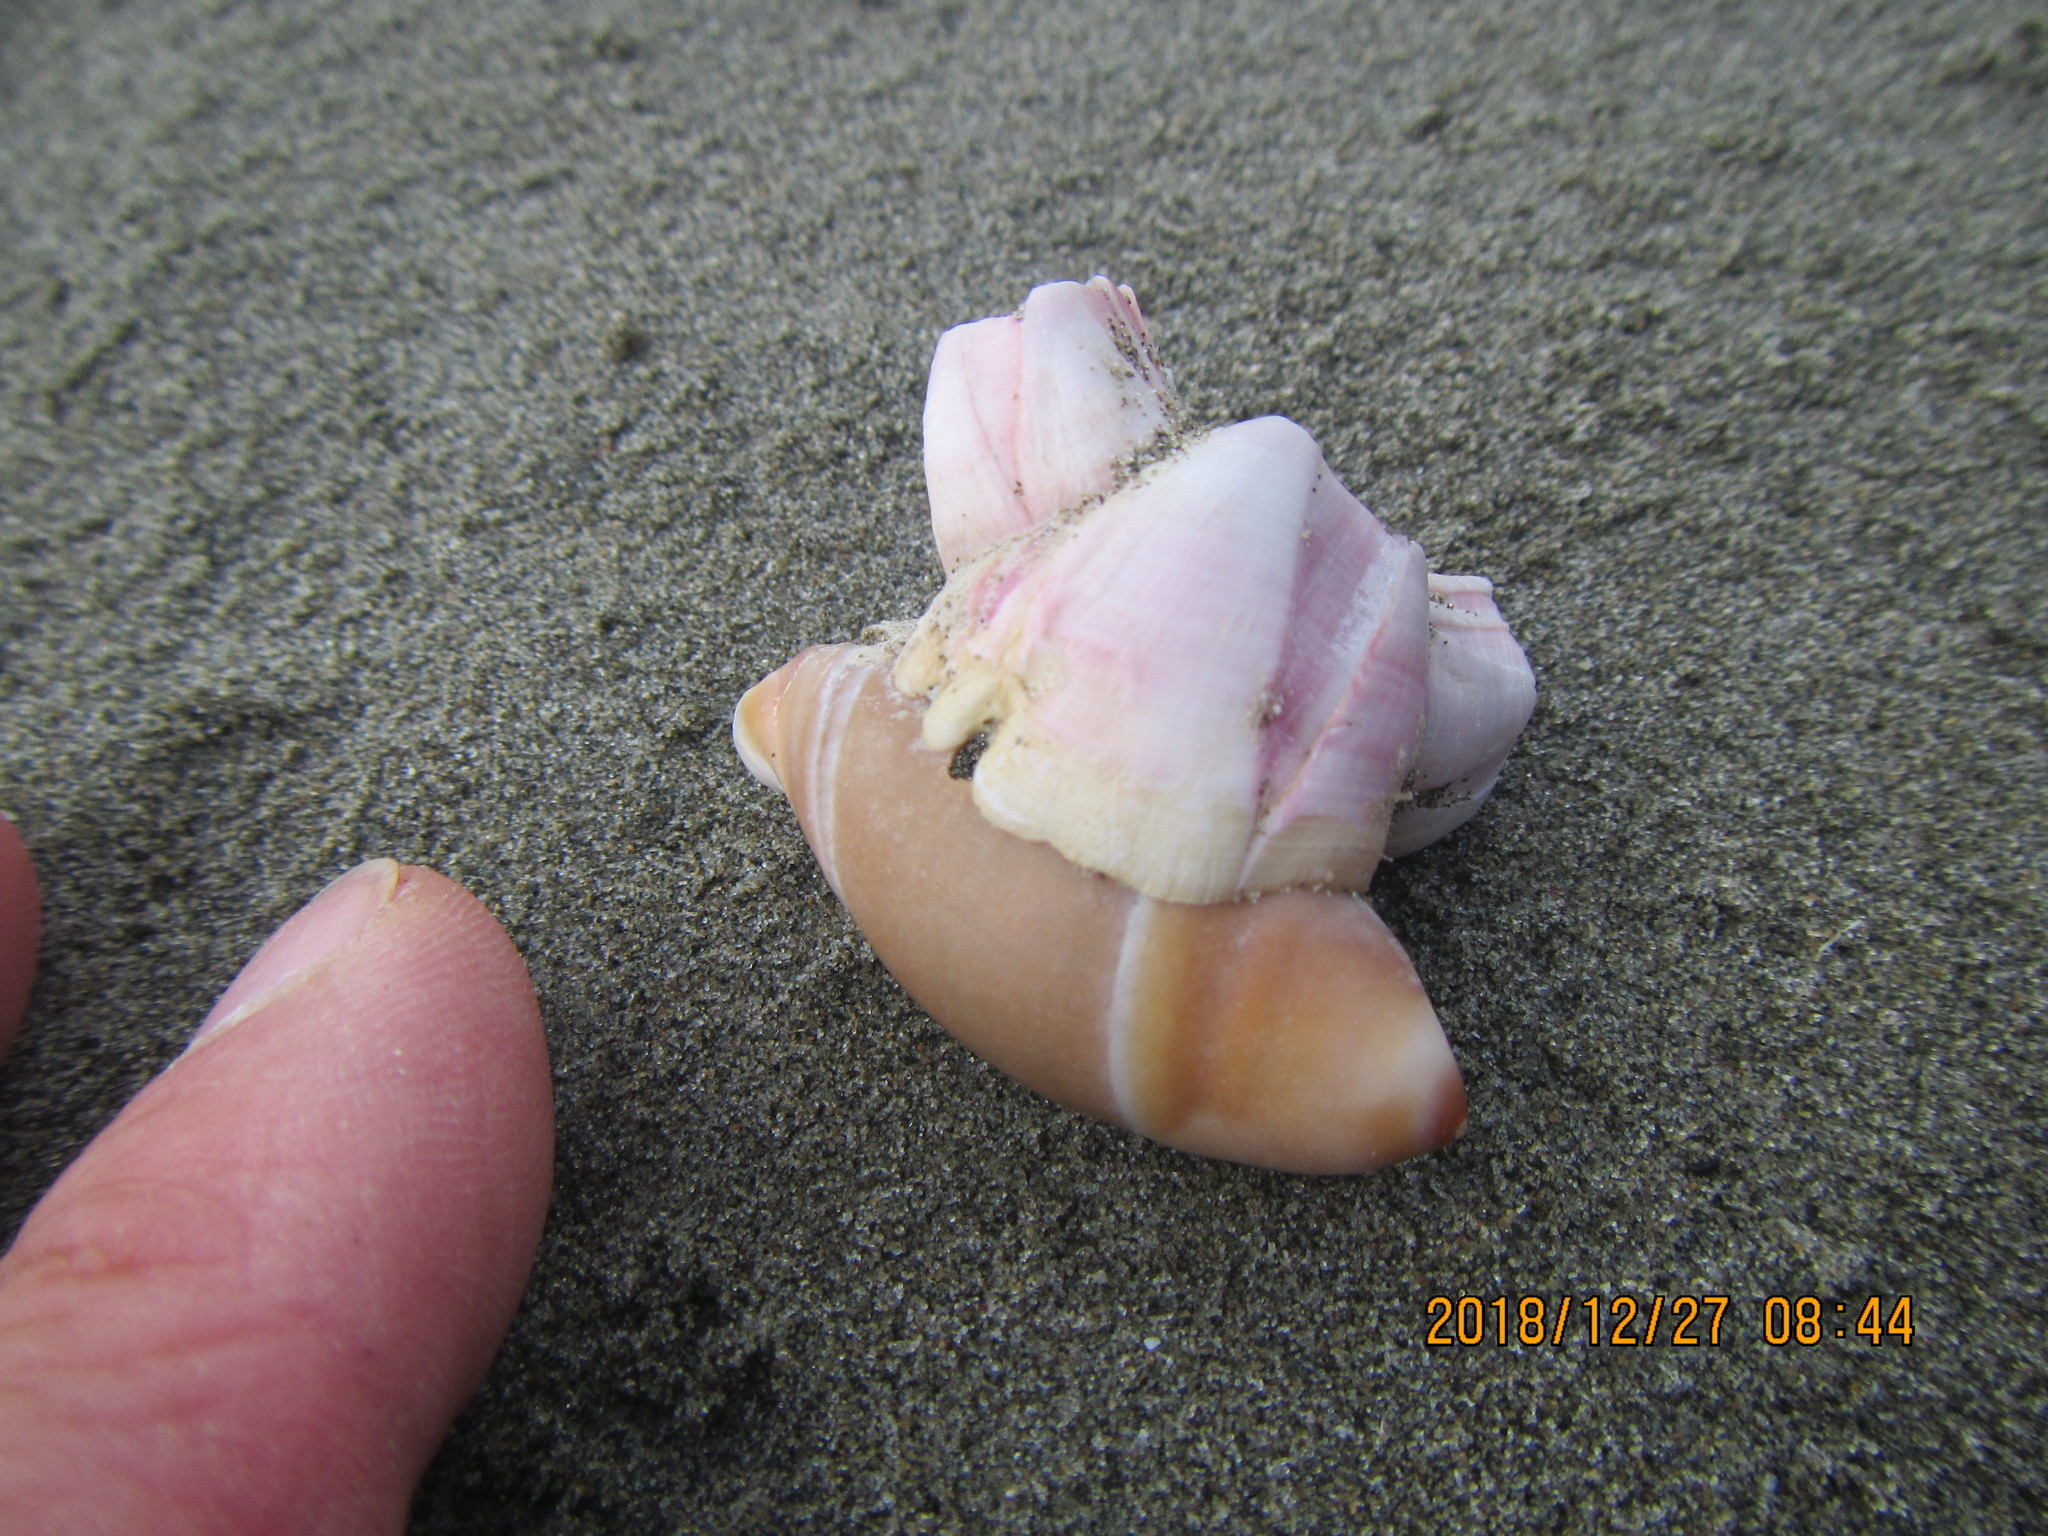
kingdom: Animalia
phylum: Arthropoda
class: Maxillopoda
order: Sessilia
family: Balanidae
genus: Notomegabalanus
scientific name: Notomegabalanus decorus
